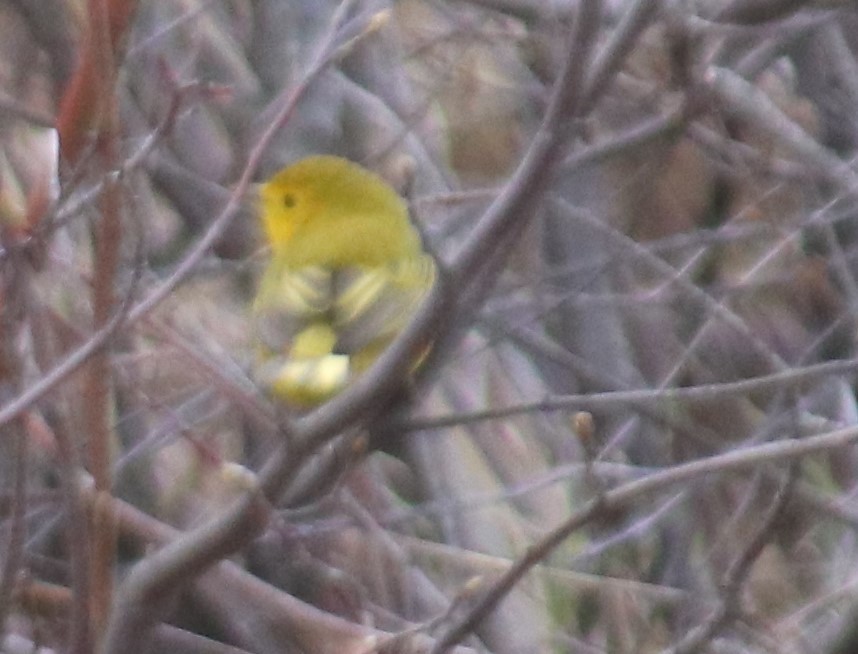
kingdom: Animalia
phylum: Chordata
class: Aves
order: Passeriformes
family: Parulidae
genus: Setophaga
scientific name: Setophaga petechia
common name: Yellow warbler
